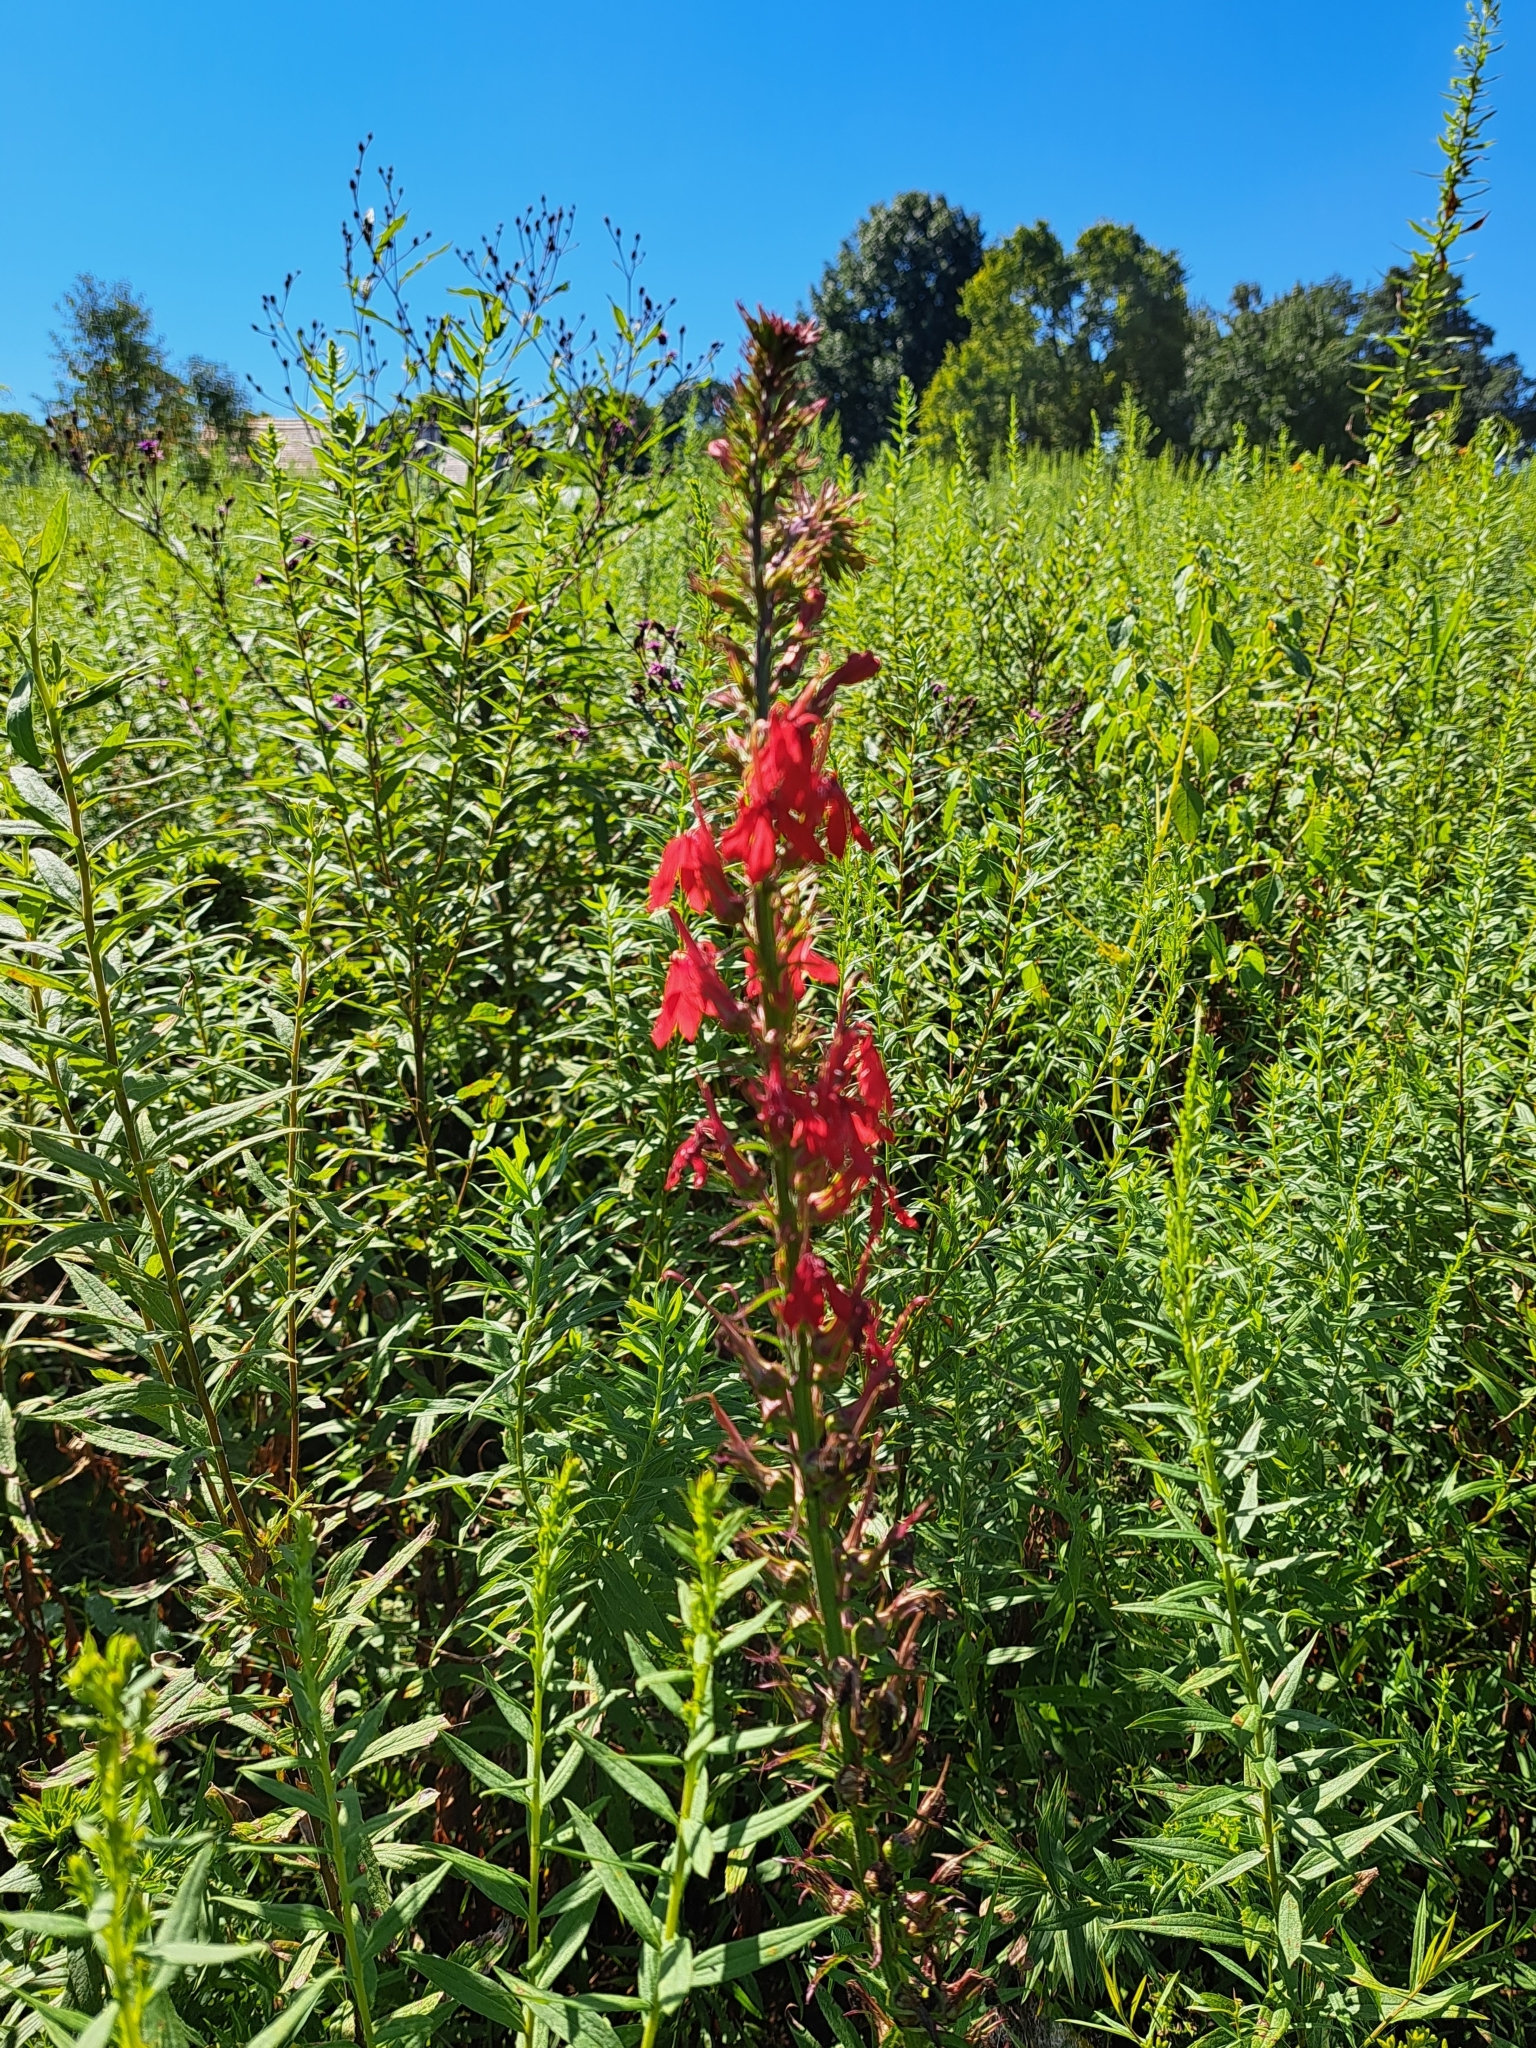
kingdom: Plantae
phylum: Tracheophyta
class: Magnoliopsida
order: Asterales
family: Campanulaceae
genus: Lobelia
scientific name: Lobelia cardinalis
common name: Cardinal flower
